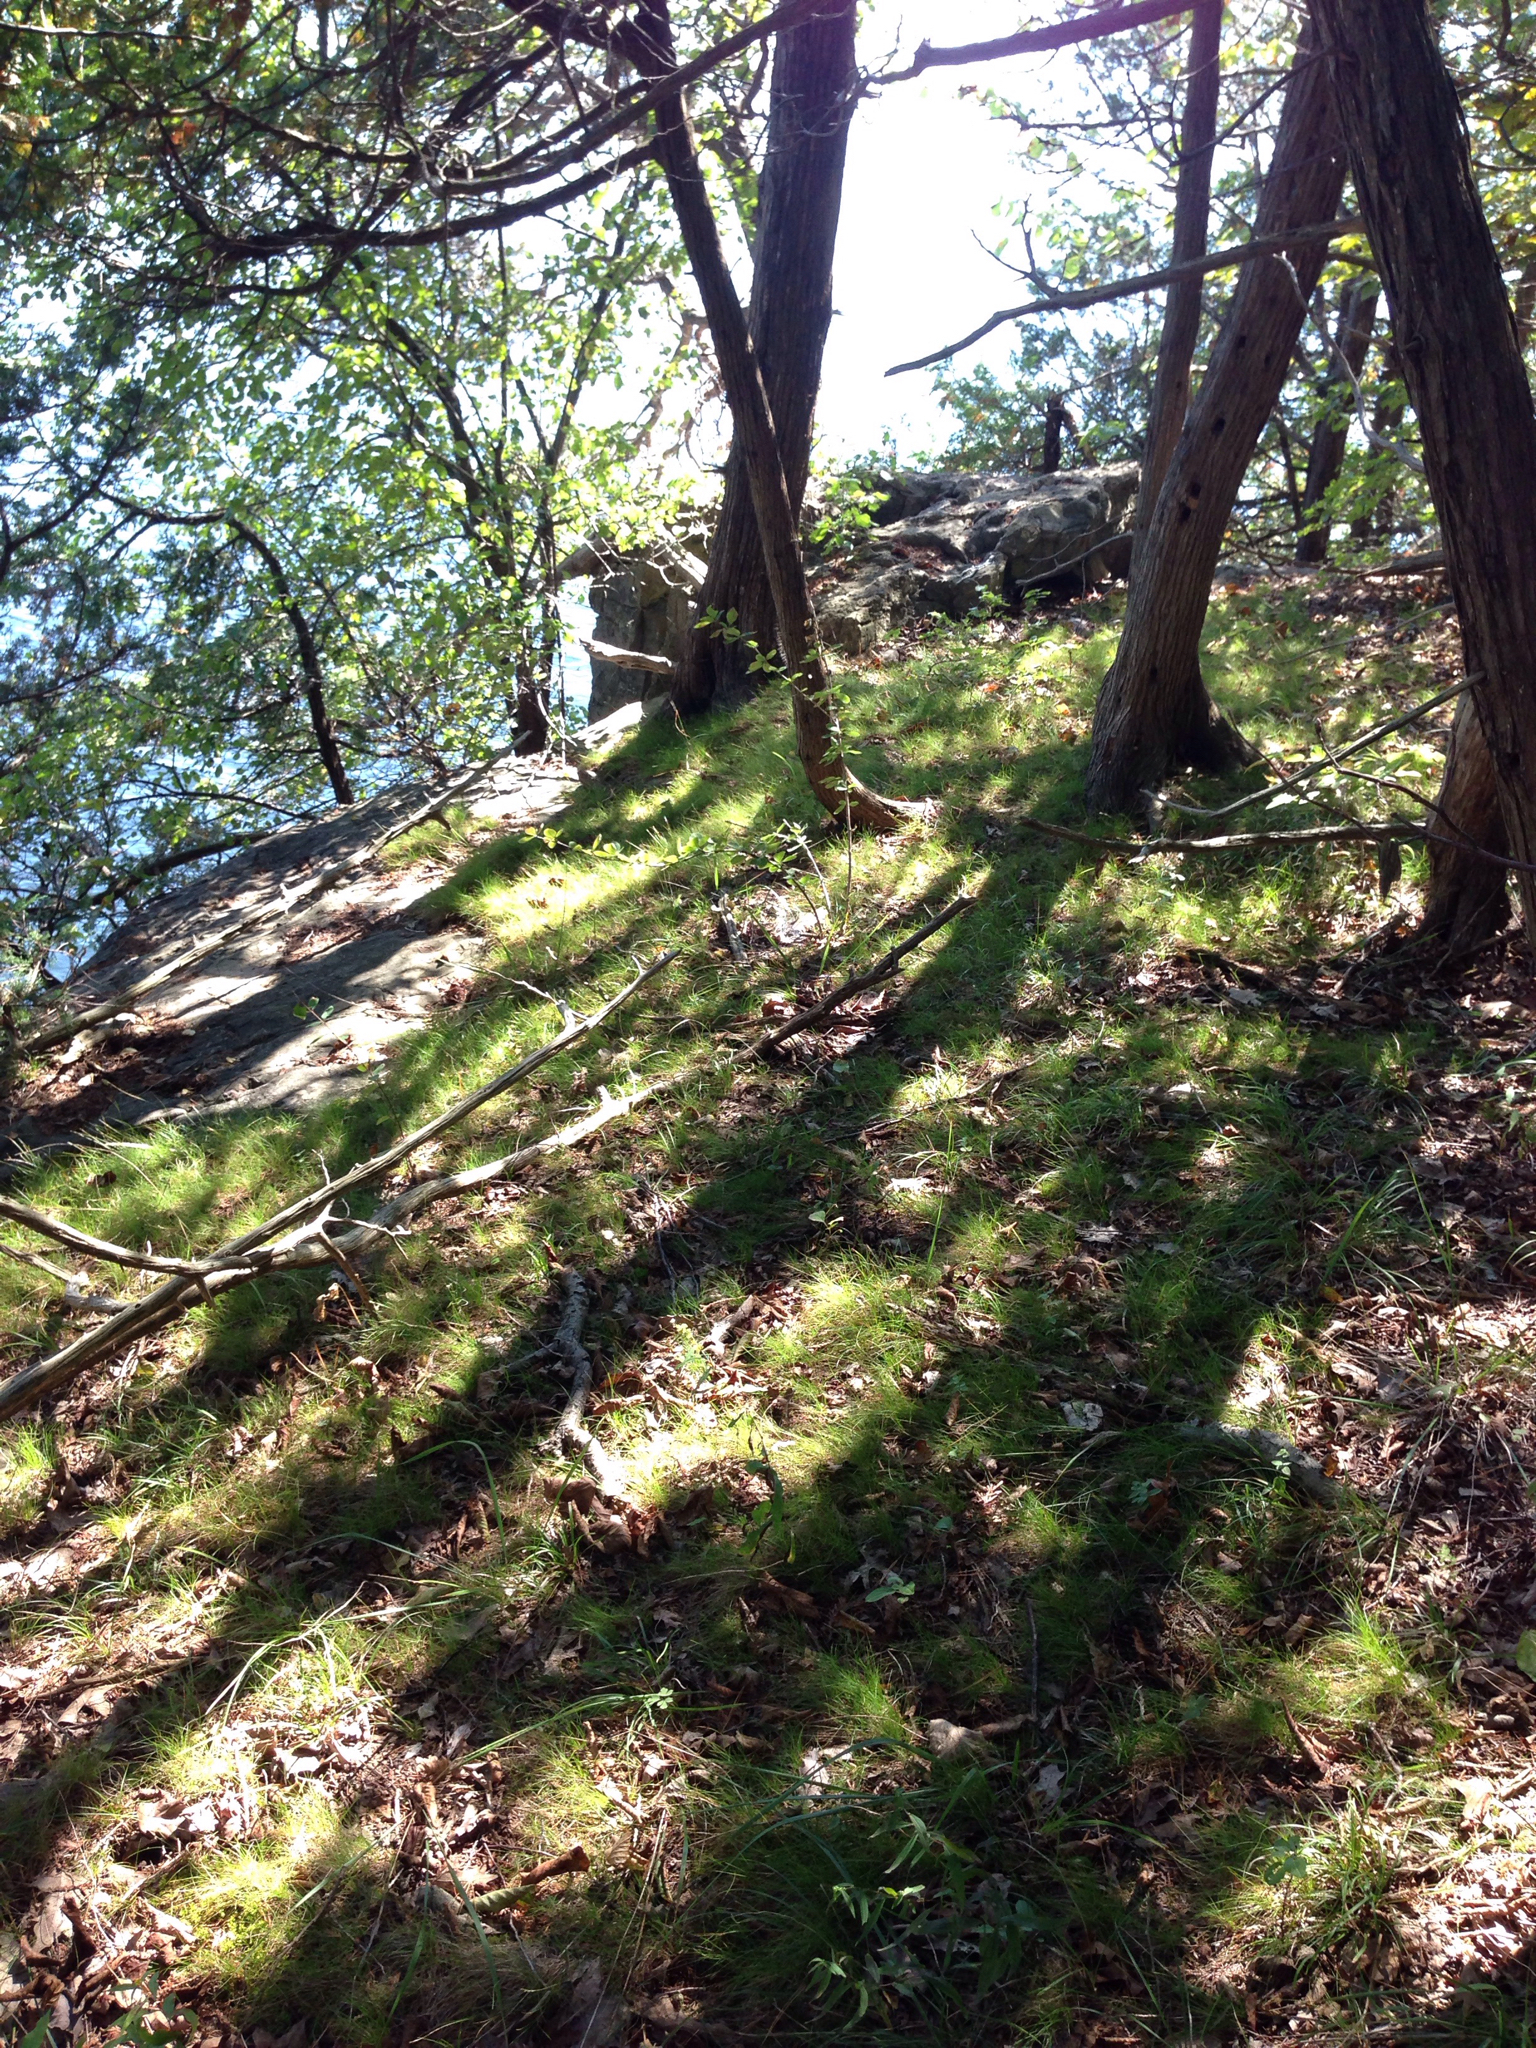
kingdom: Plantae
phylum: Tracheophyta
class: Liliopsida
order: Poales
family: Cyperaceae
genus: Carex
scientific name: Carex eburnea
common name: Bristle-leaved sedge
